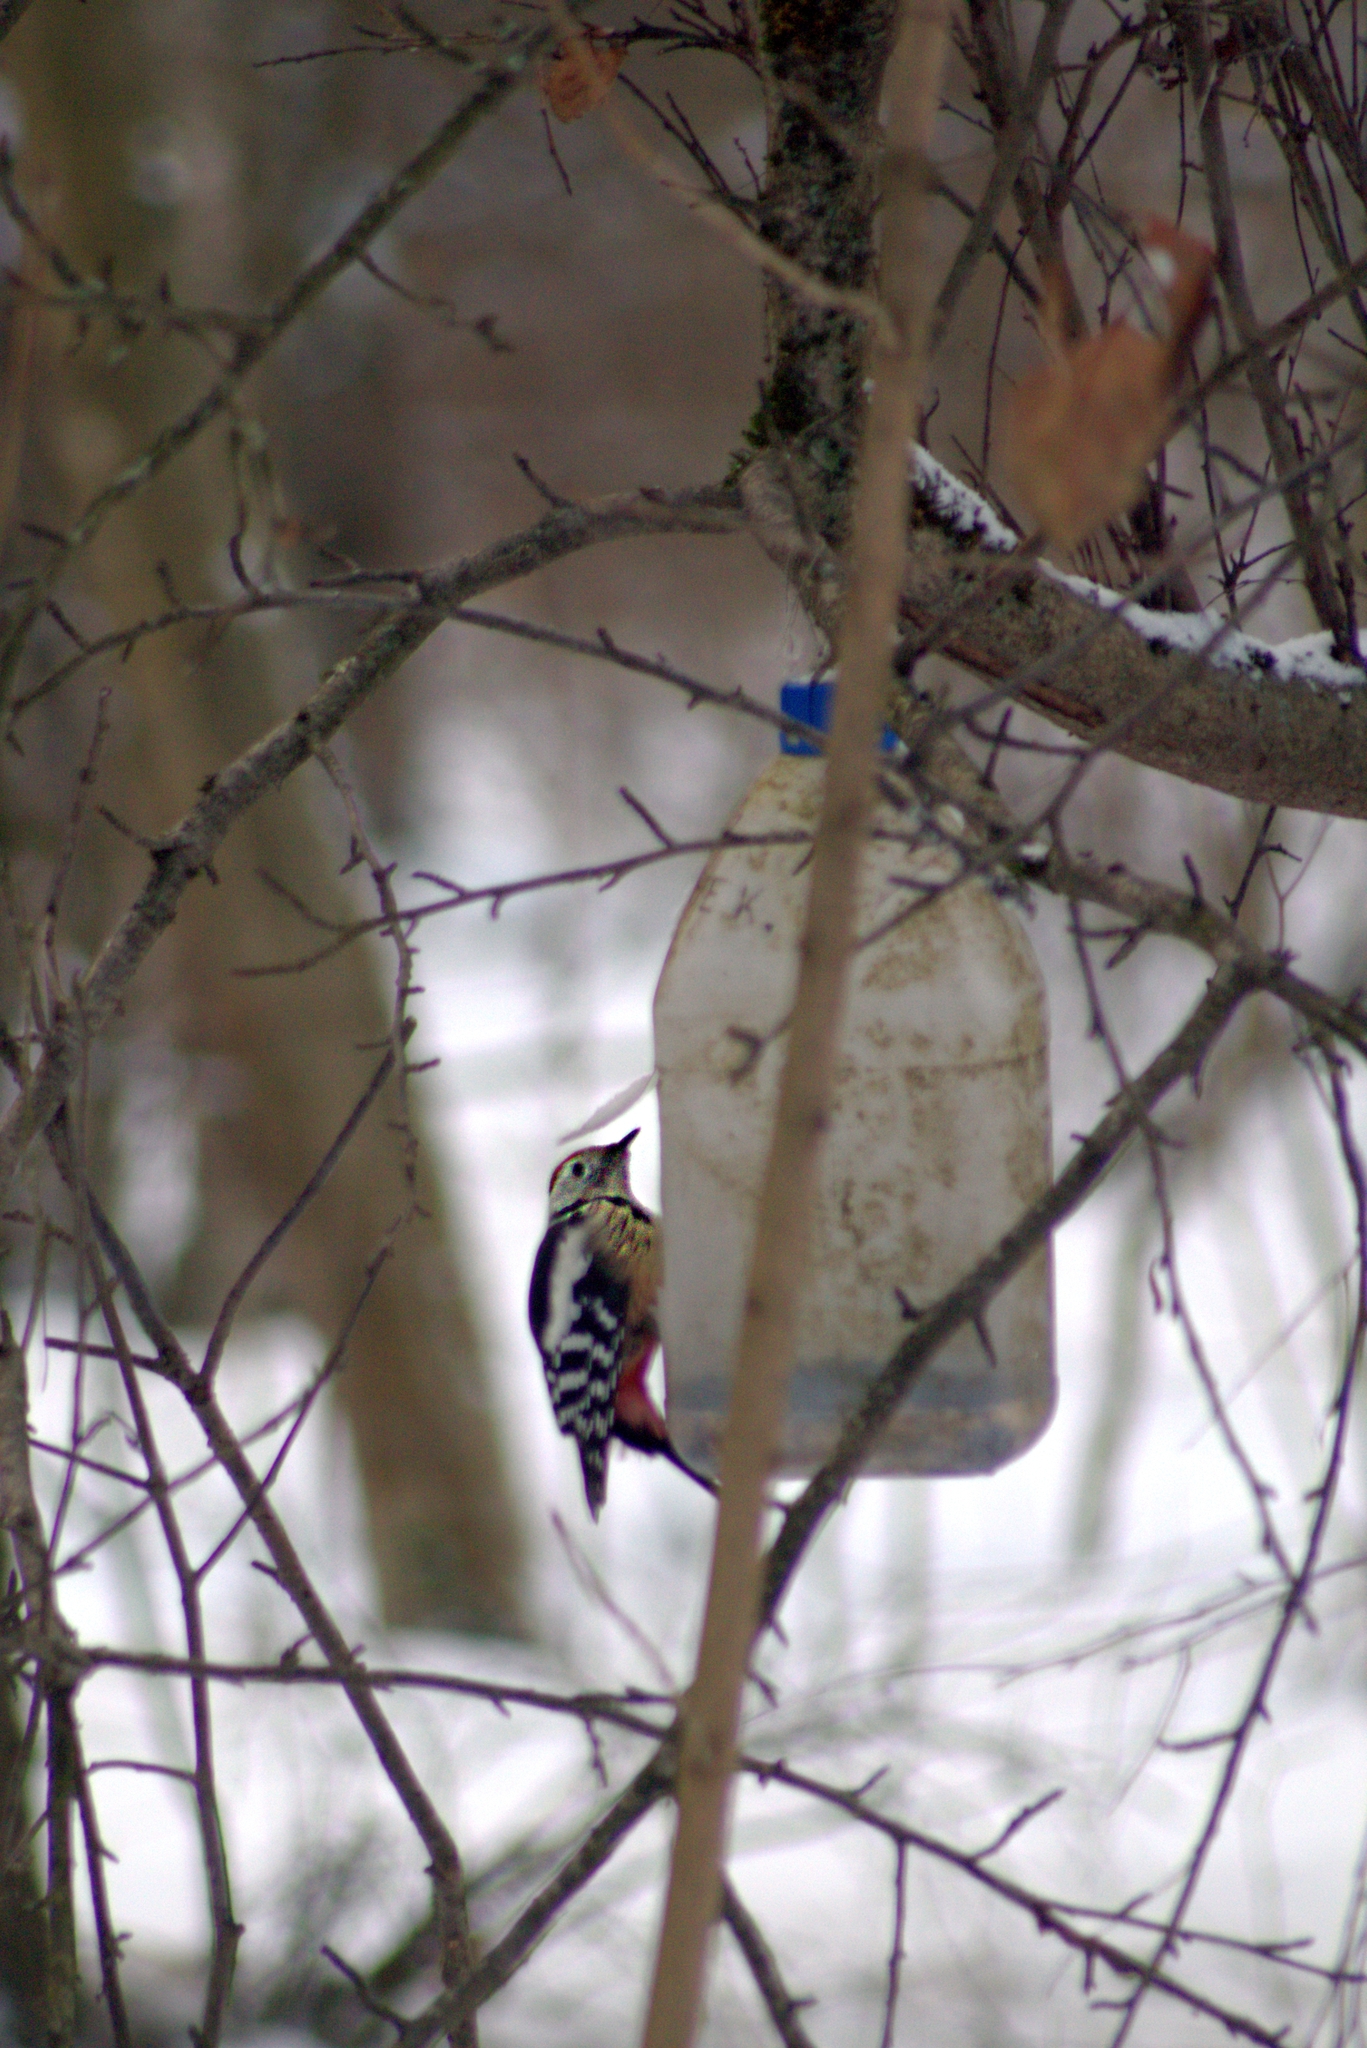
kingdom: Animalia
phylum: Chordata
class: Aves
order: Piciformes
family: Picidae
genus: Dendrocoptes
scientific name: Dendrocoptes medius
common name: Middle spotted woodpecker
